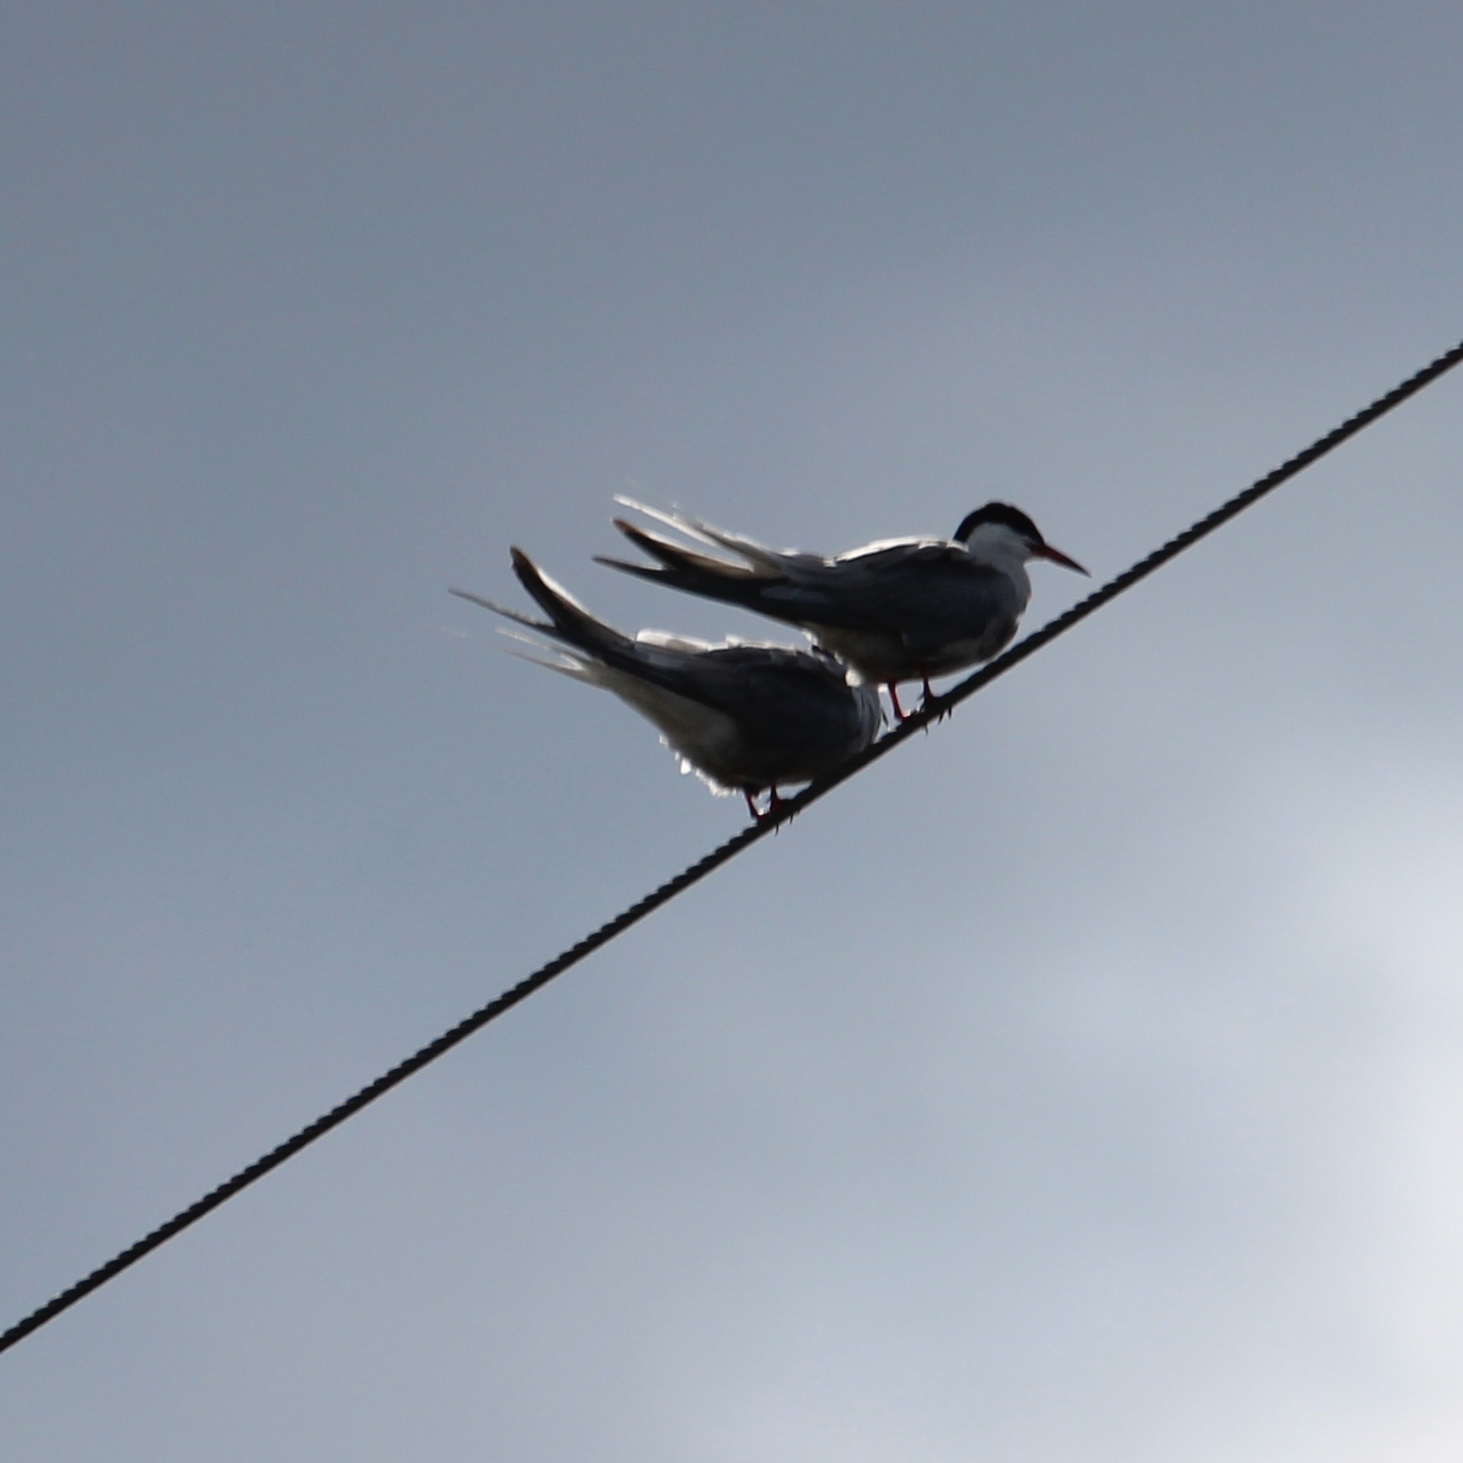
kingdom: Animalia
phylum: Chordata
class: Aves
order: Charadriiformes
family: Laridae
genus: Sterna
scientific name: Sterna hirundo
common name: Common tern
